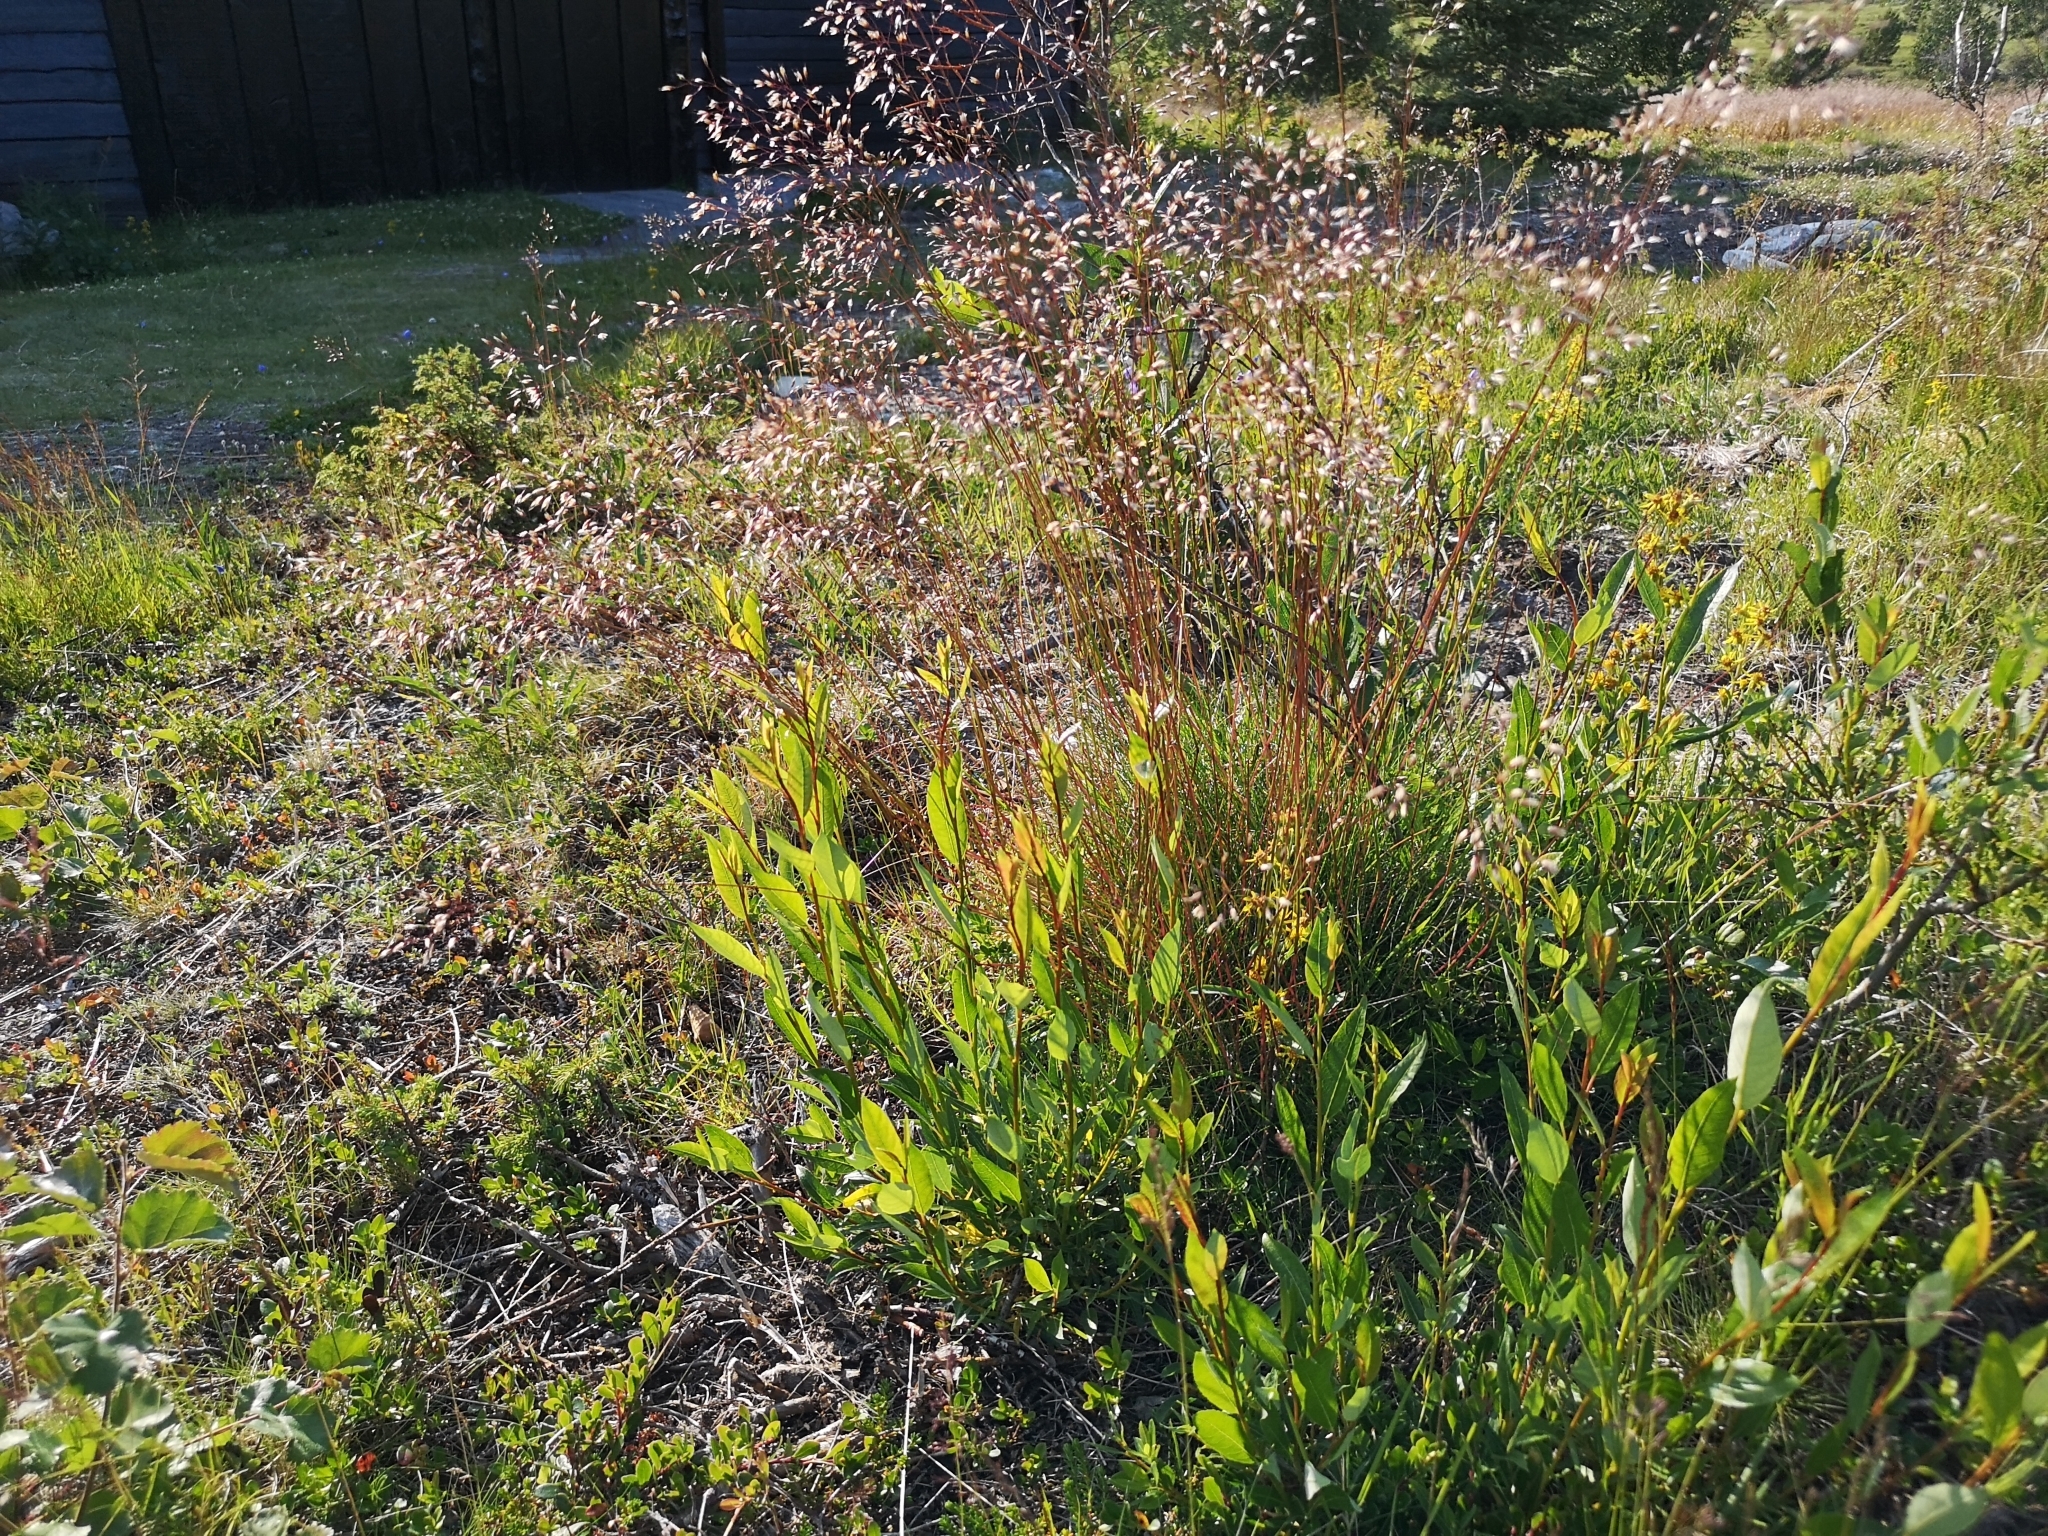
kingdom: Plantae
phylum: Tracheophyta
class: Liliopsida
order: Poales
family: Poaceae
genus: Avenella
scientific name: Avenella flexuosa
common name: Wavy hairgrass
